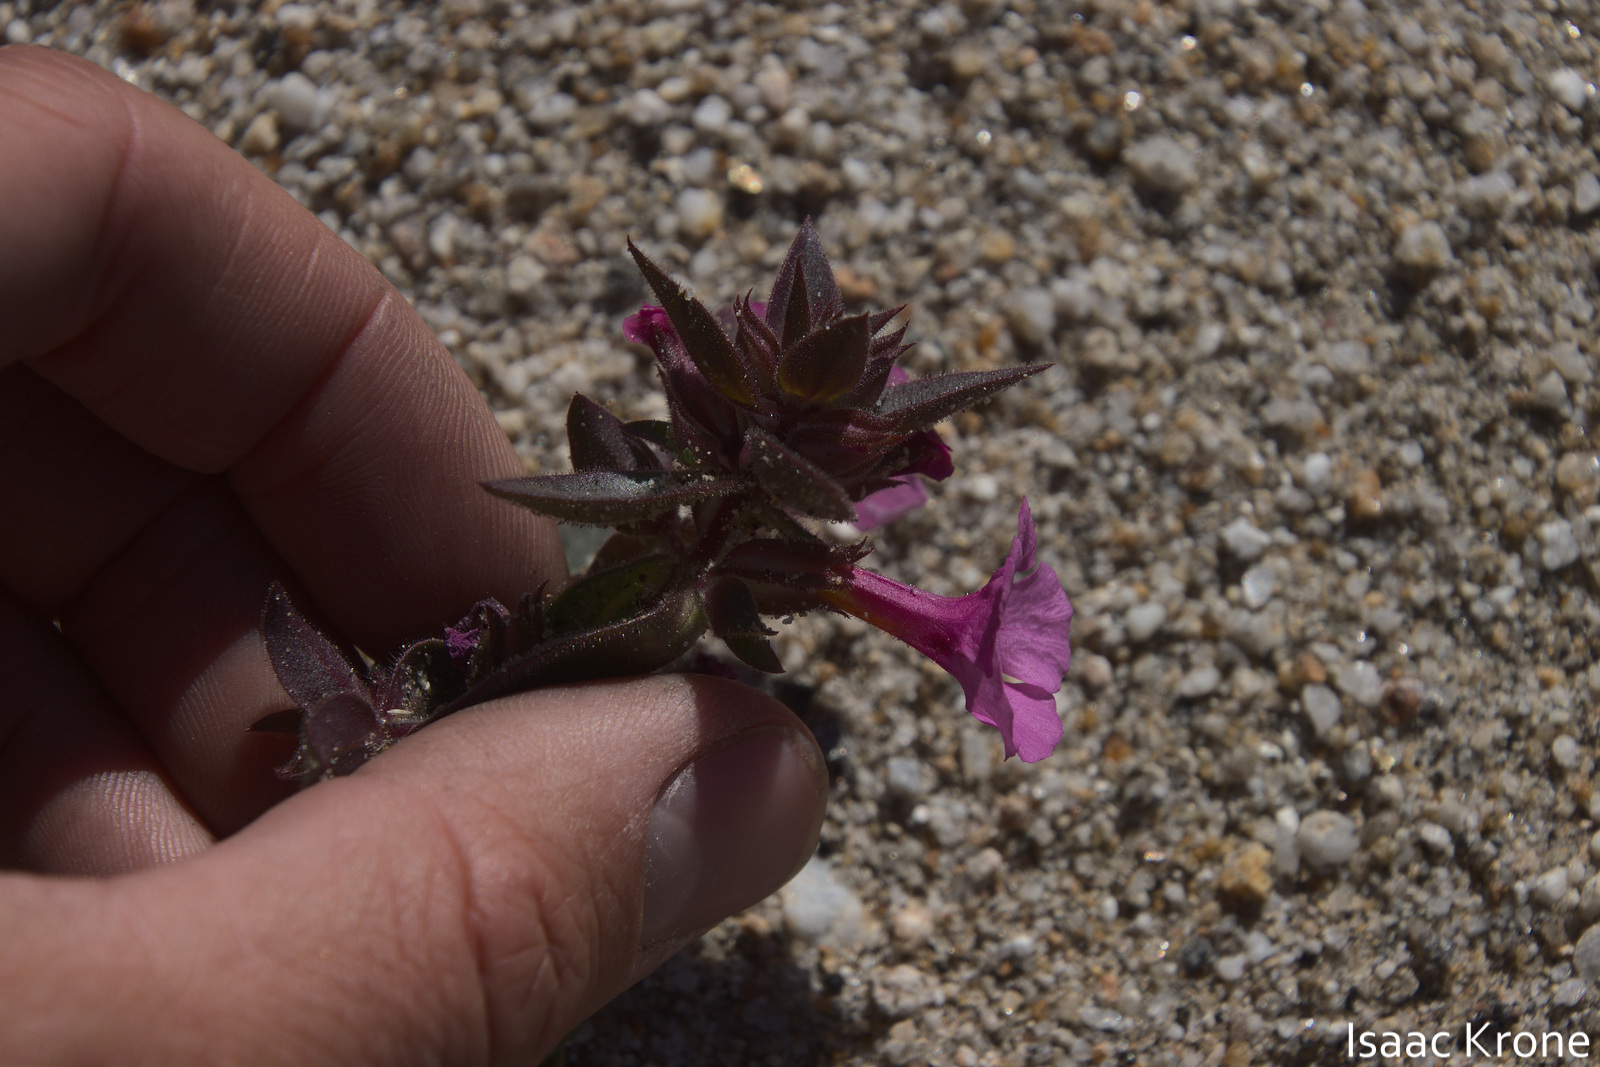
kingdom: Plantae
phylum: Tracheophyta
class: Magnoliopsida
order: Lamiales
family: Phrymaceae
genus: Diplacus
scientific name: Diplacus bigelovii
